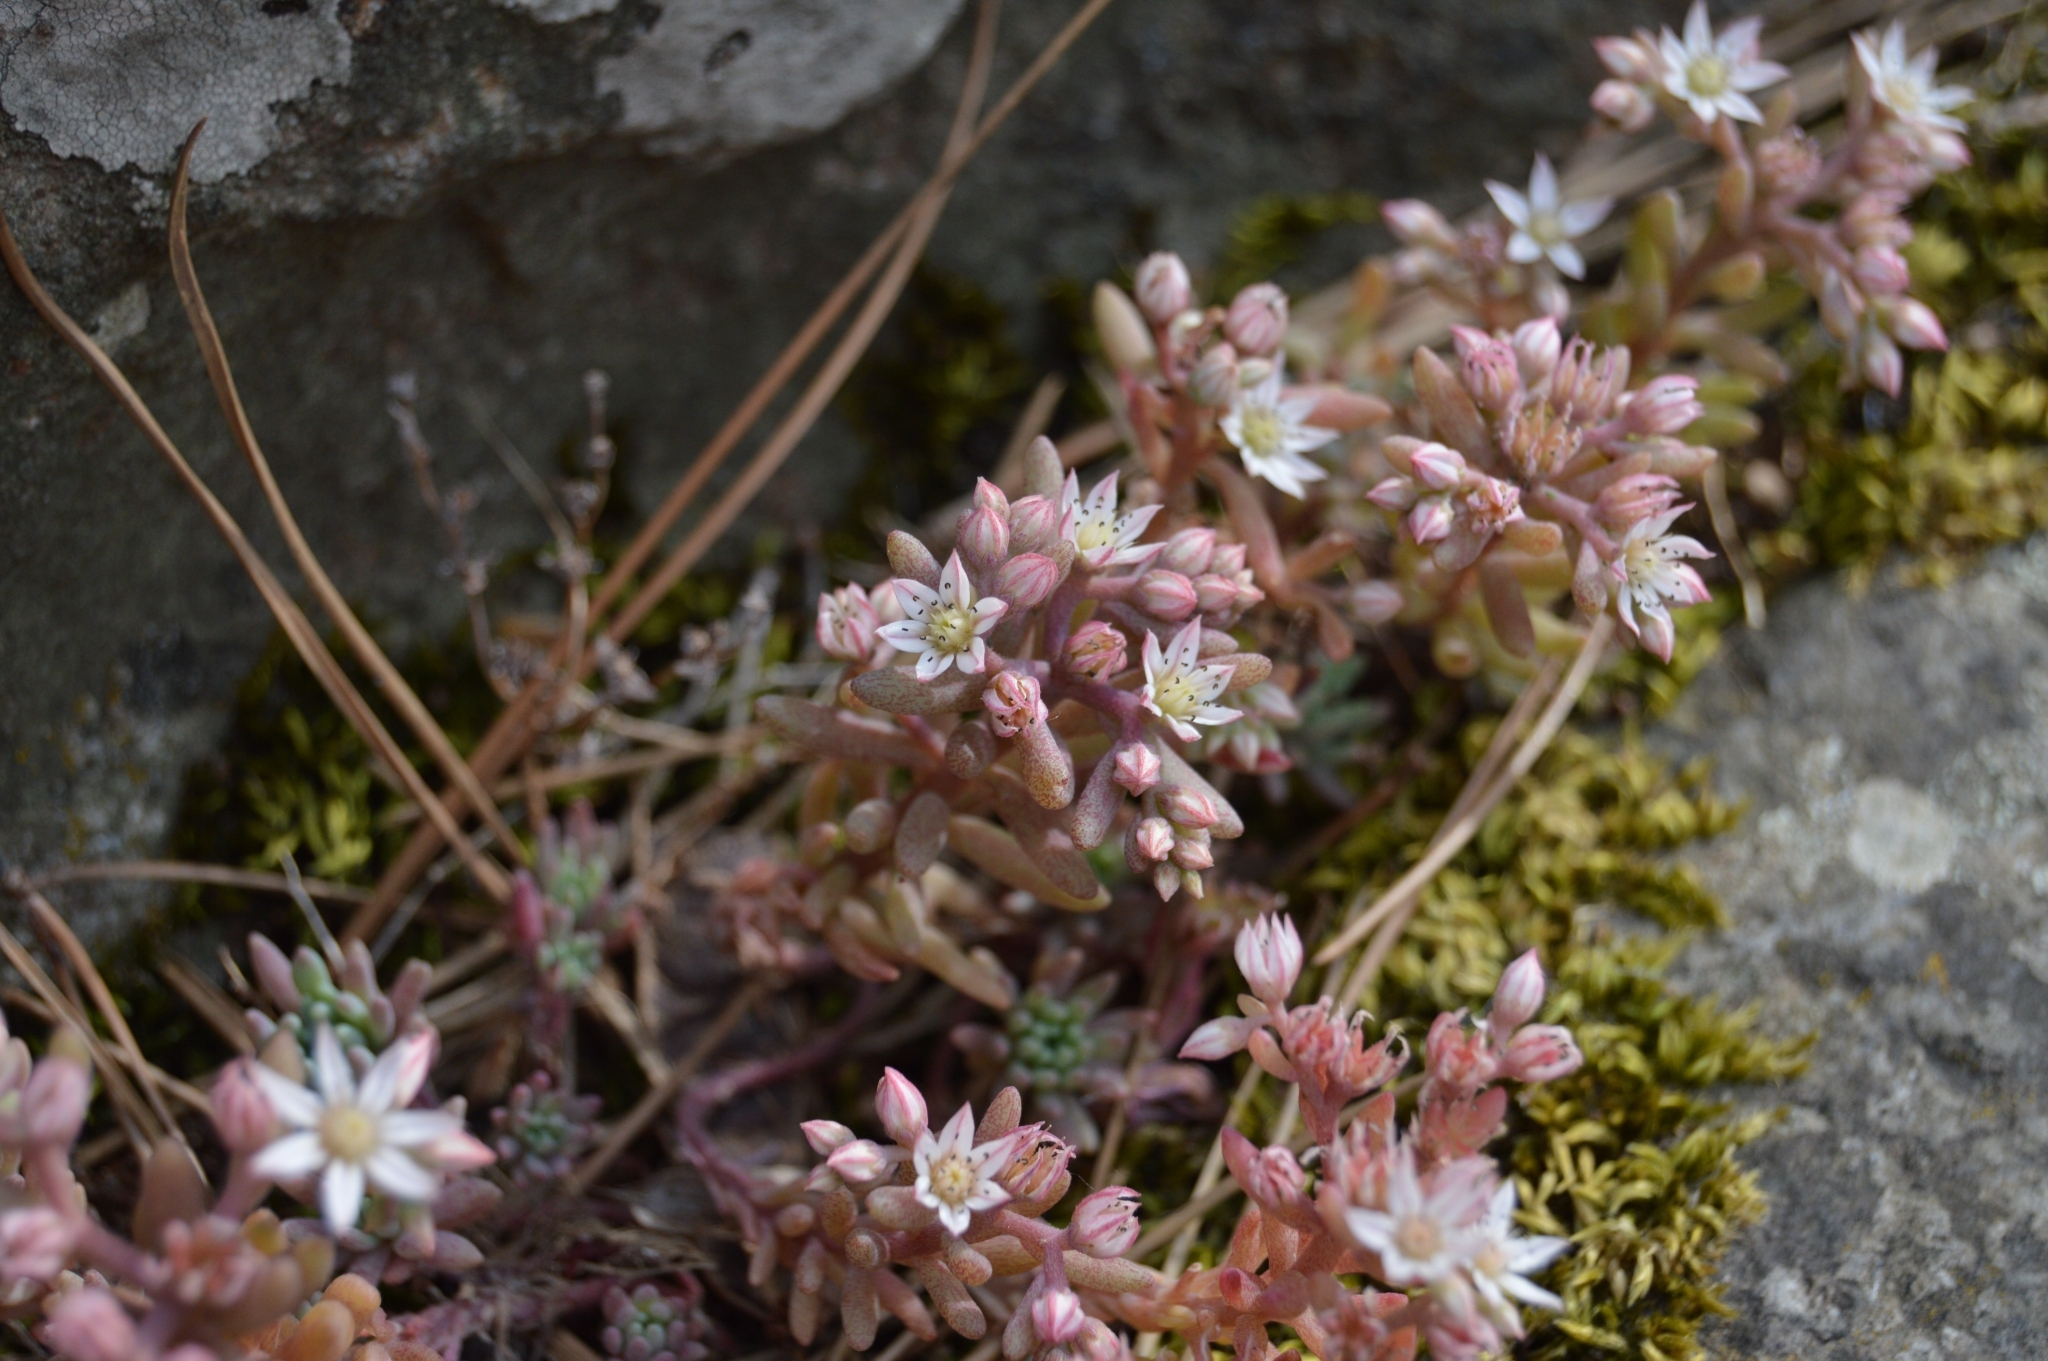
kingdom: Plantae
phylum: Tracheophyta
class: Magnoliopsida
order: Saxifragales
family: Crassulaceae
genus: Sedum
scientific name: Sedum hispanicum
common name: Spanish stonecrop
